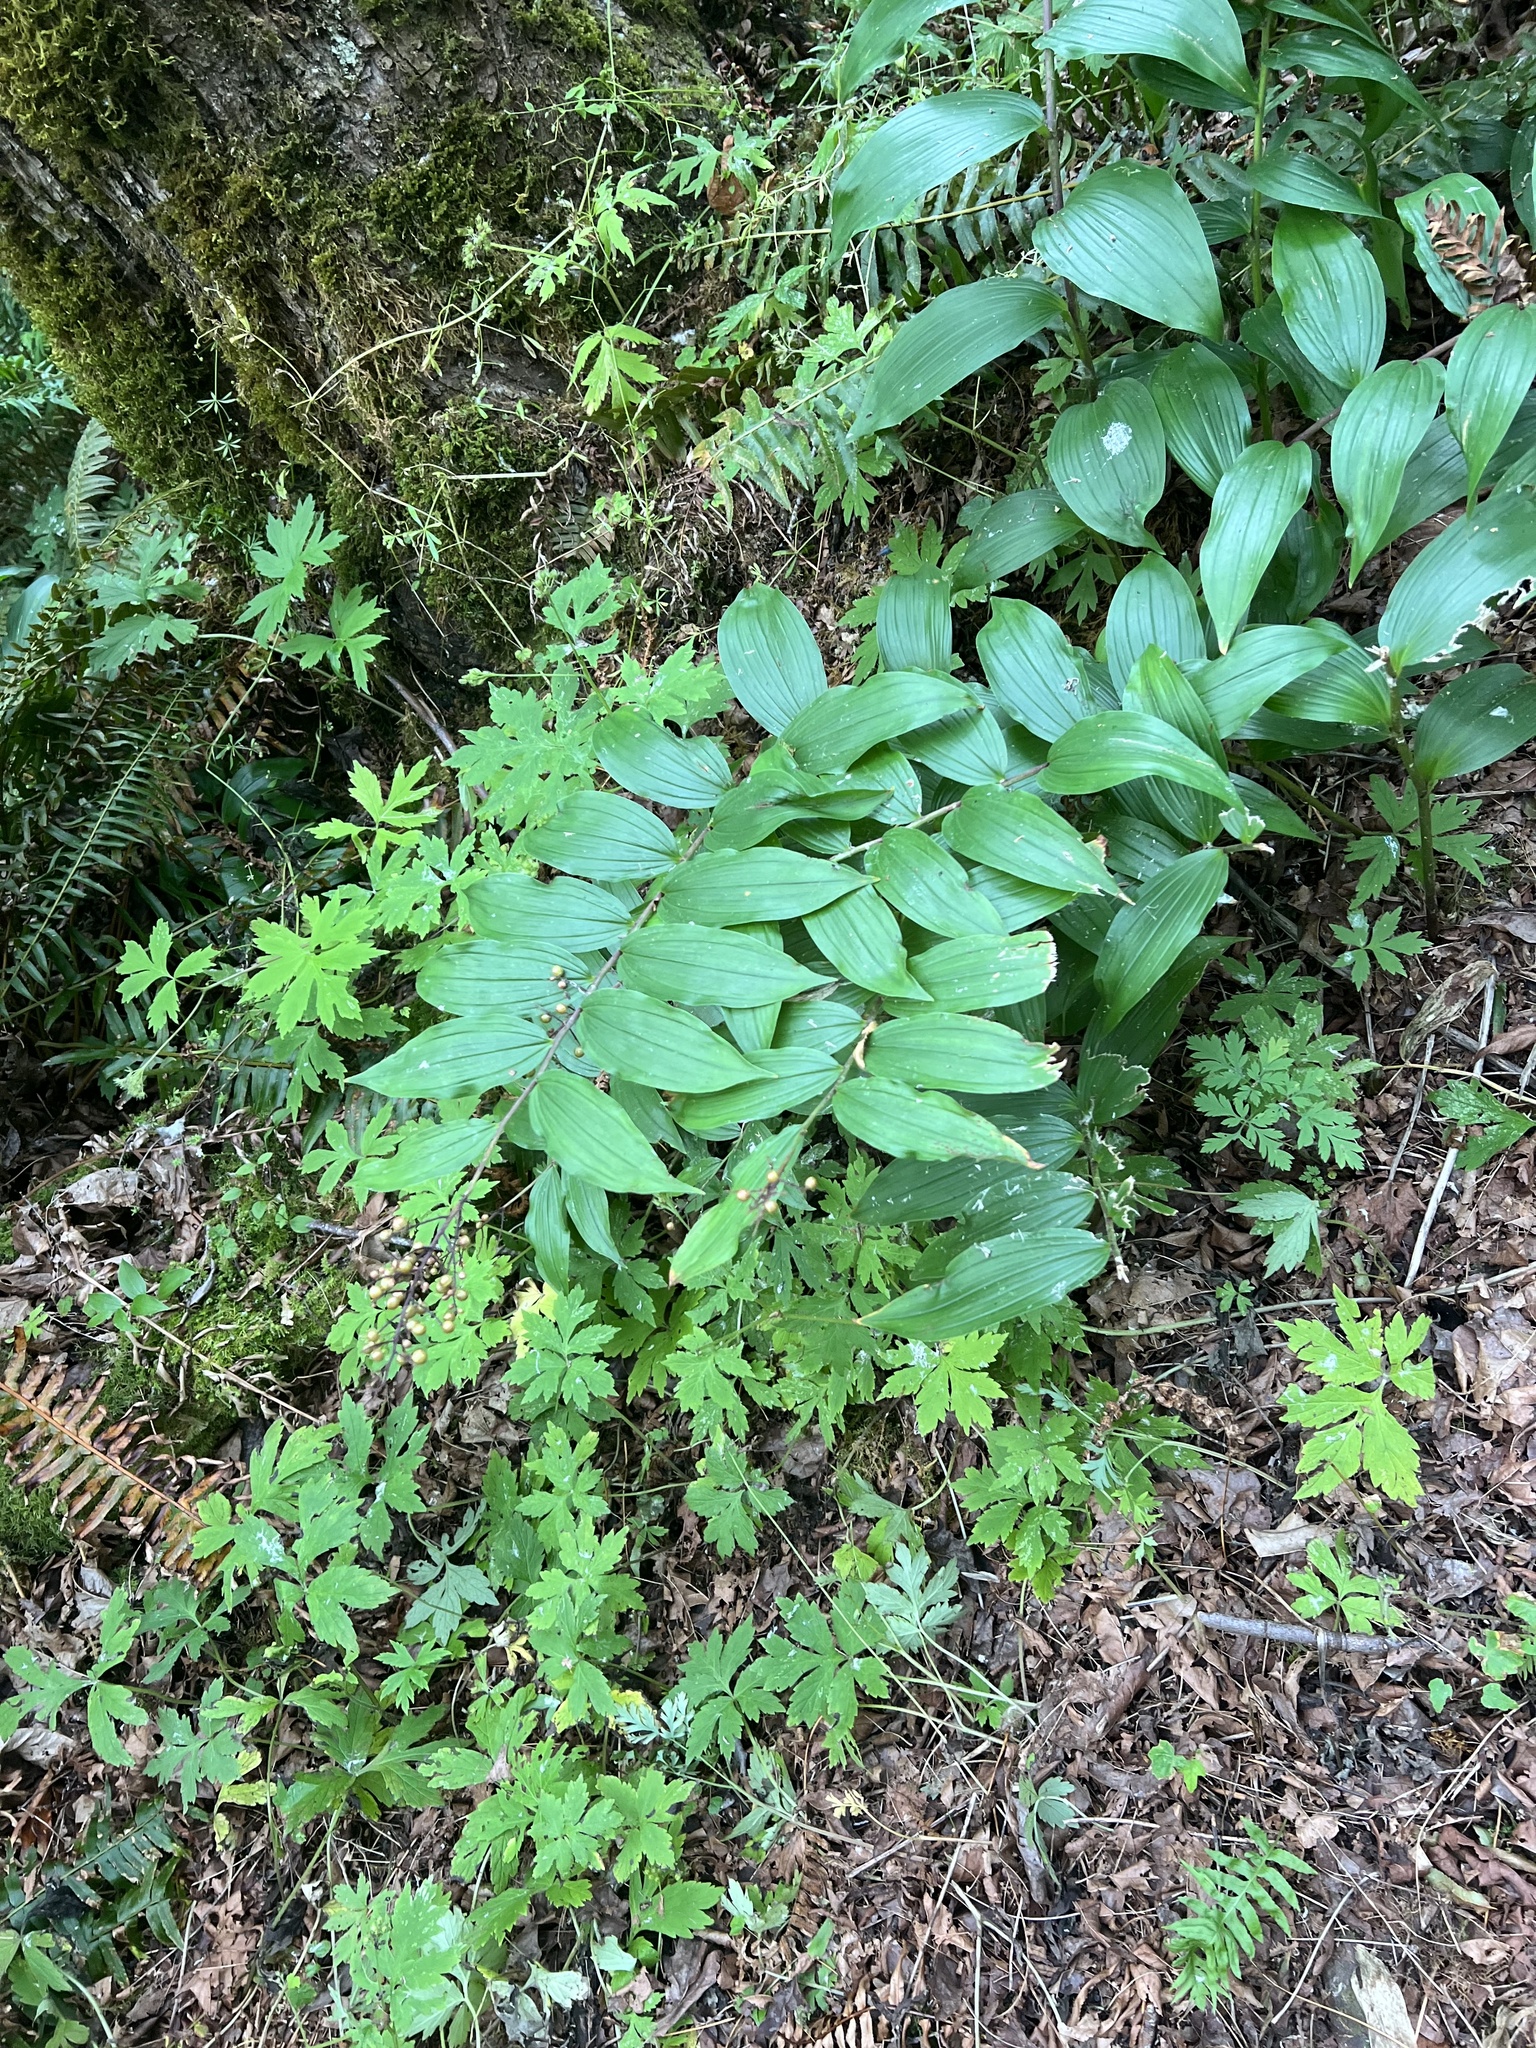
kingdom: Plantae
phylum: Tracheophyta
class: Liliopsida
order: Asparagales
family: Asparagaceae
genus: Maianthemum
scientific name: Maianthemum racemosum
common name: False spikenard
